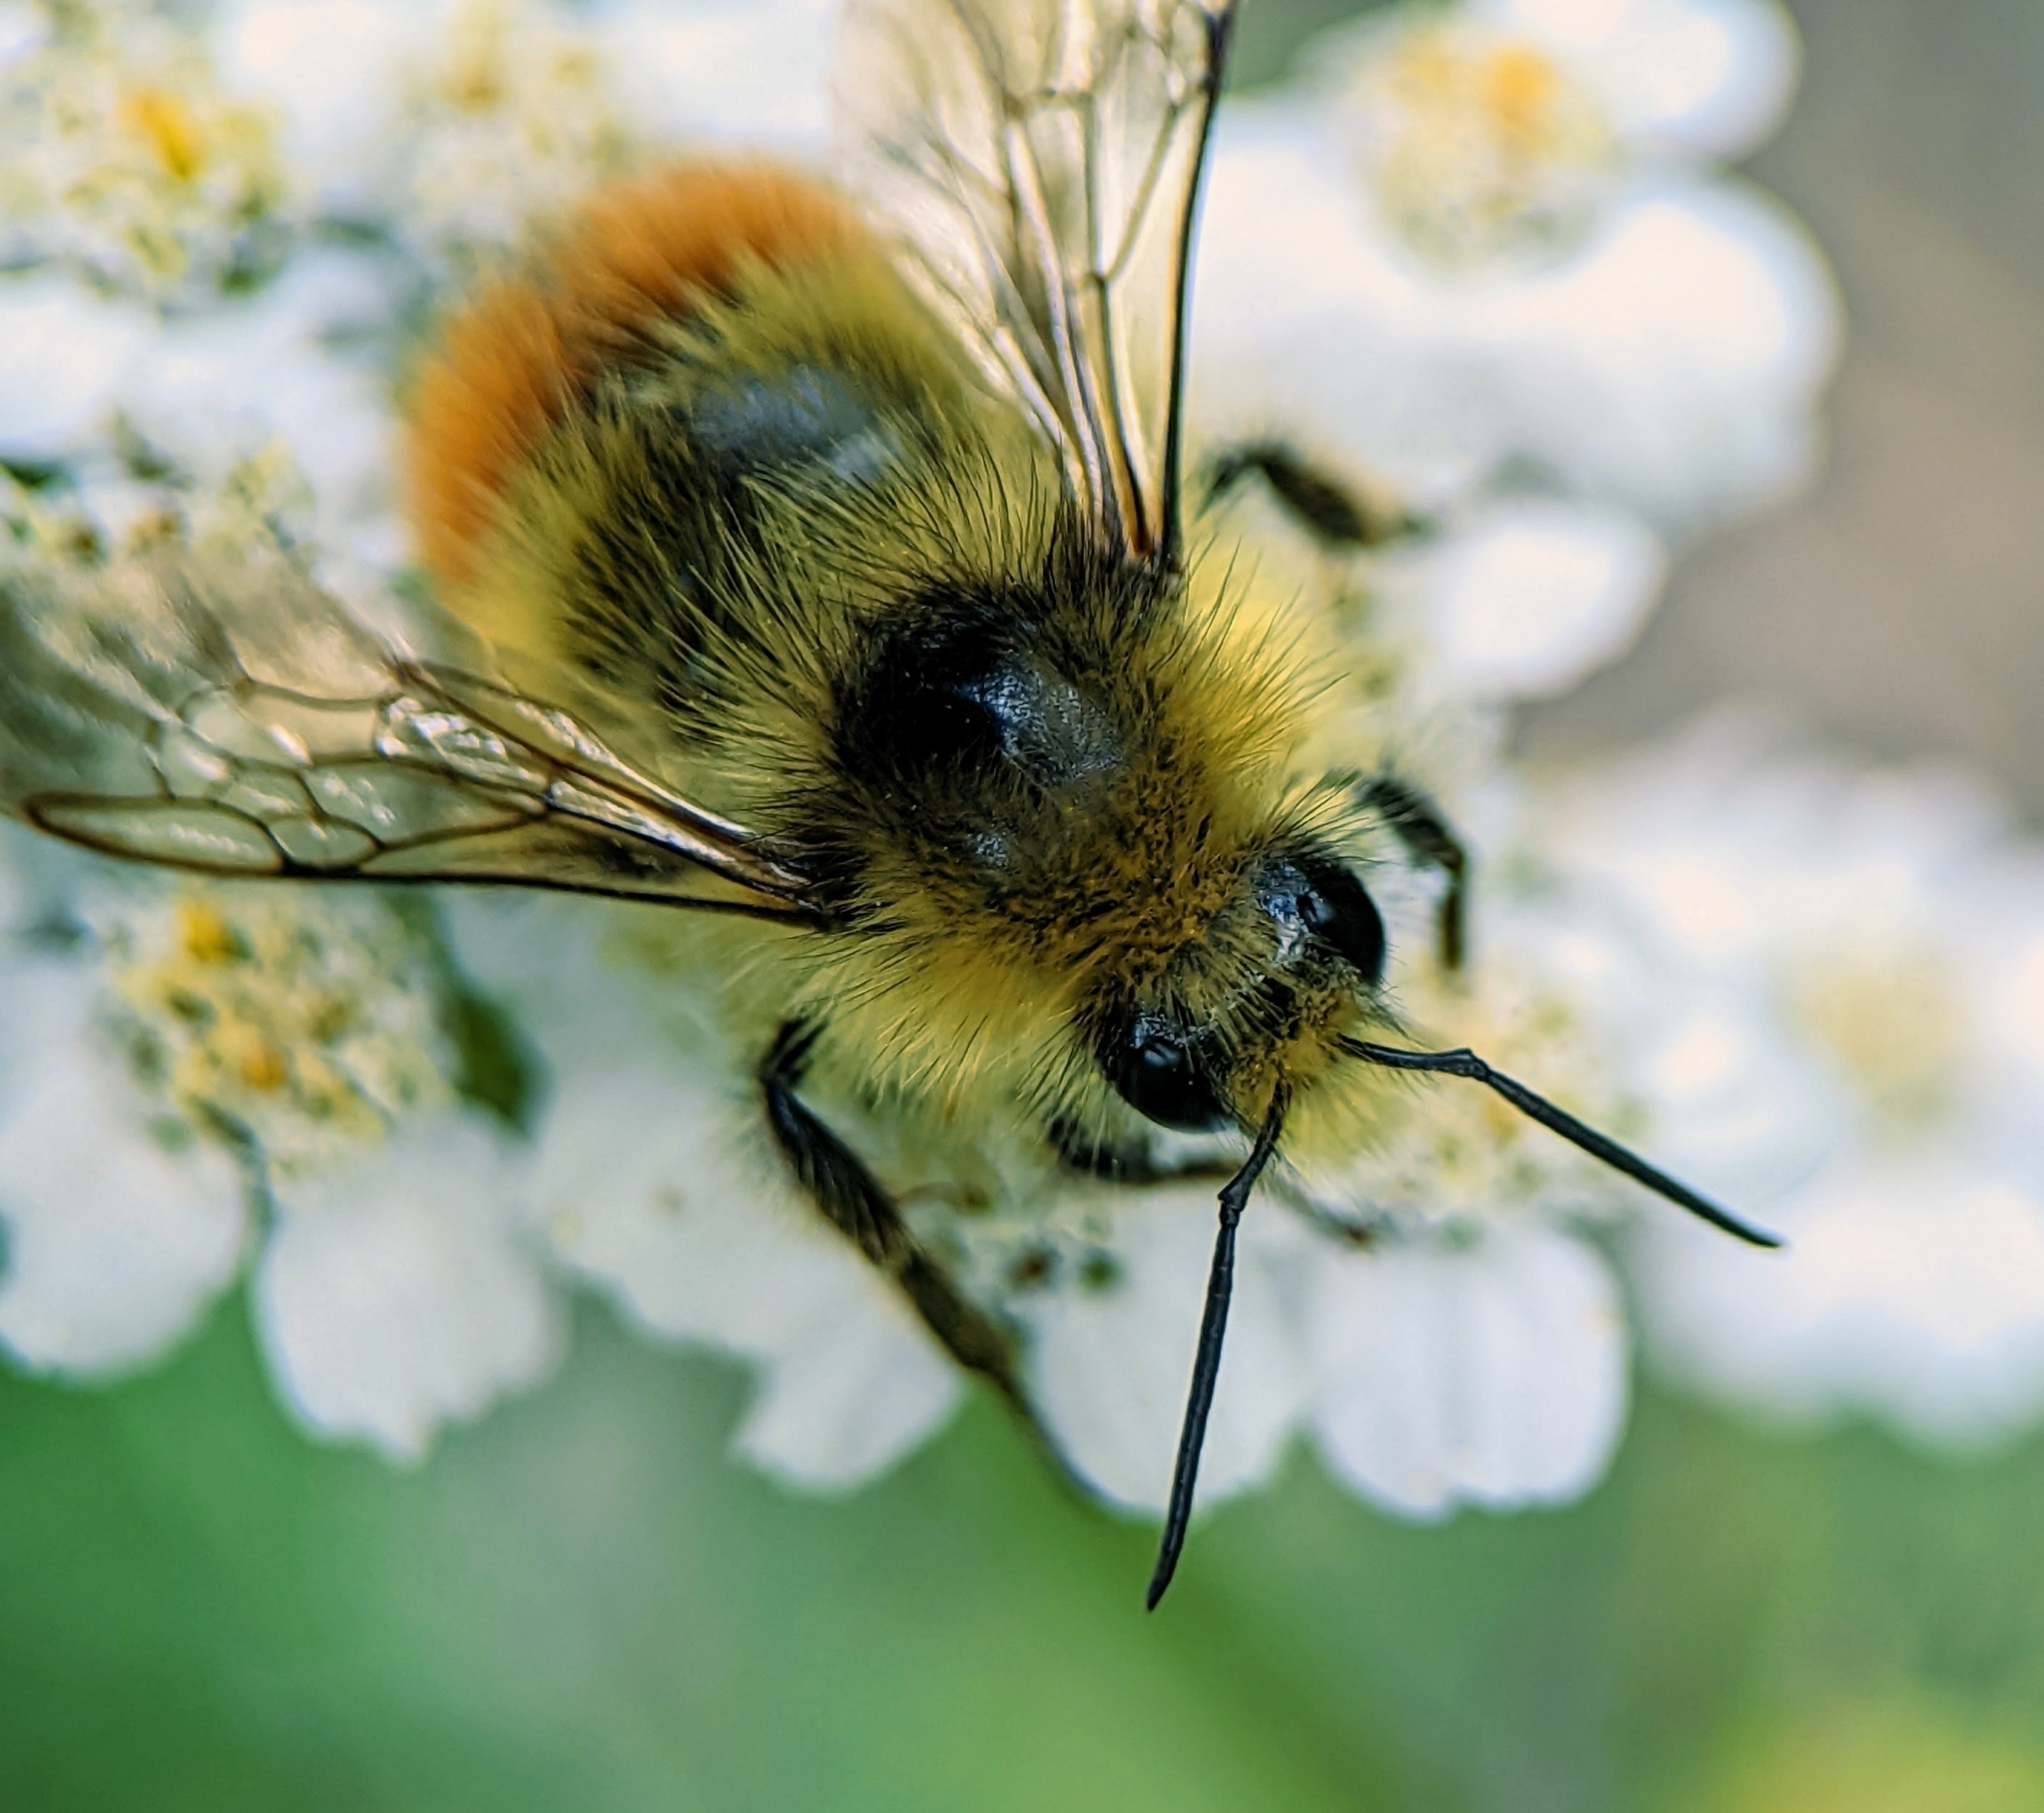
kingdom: Animalia
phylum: Arthropoda
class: Insecta
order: Hymenoptera
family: Apidae
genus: Bombus
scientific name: Bombus centralis
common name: Central bumble bee
